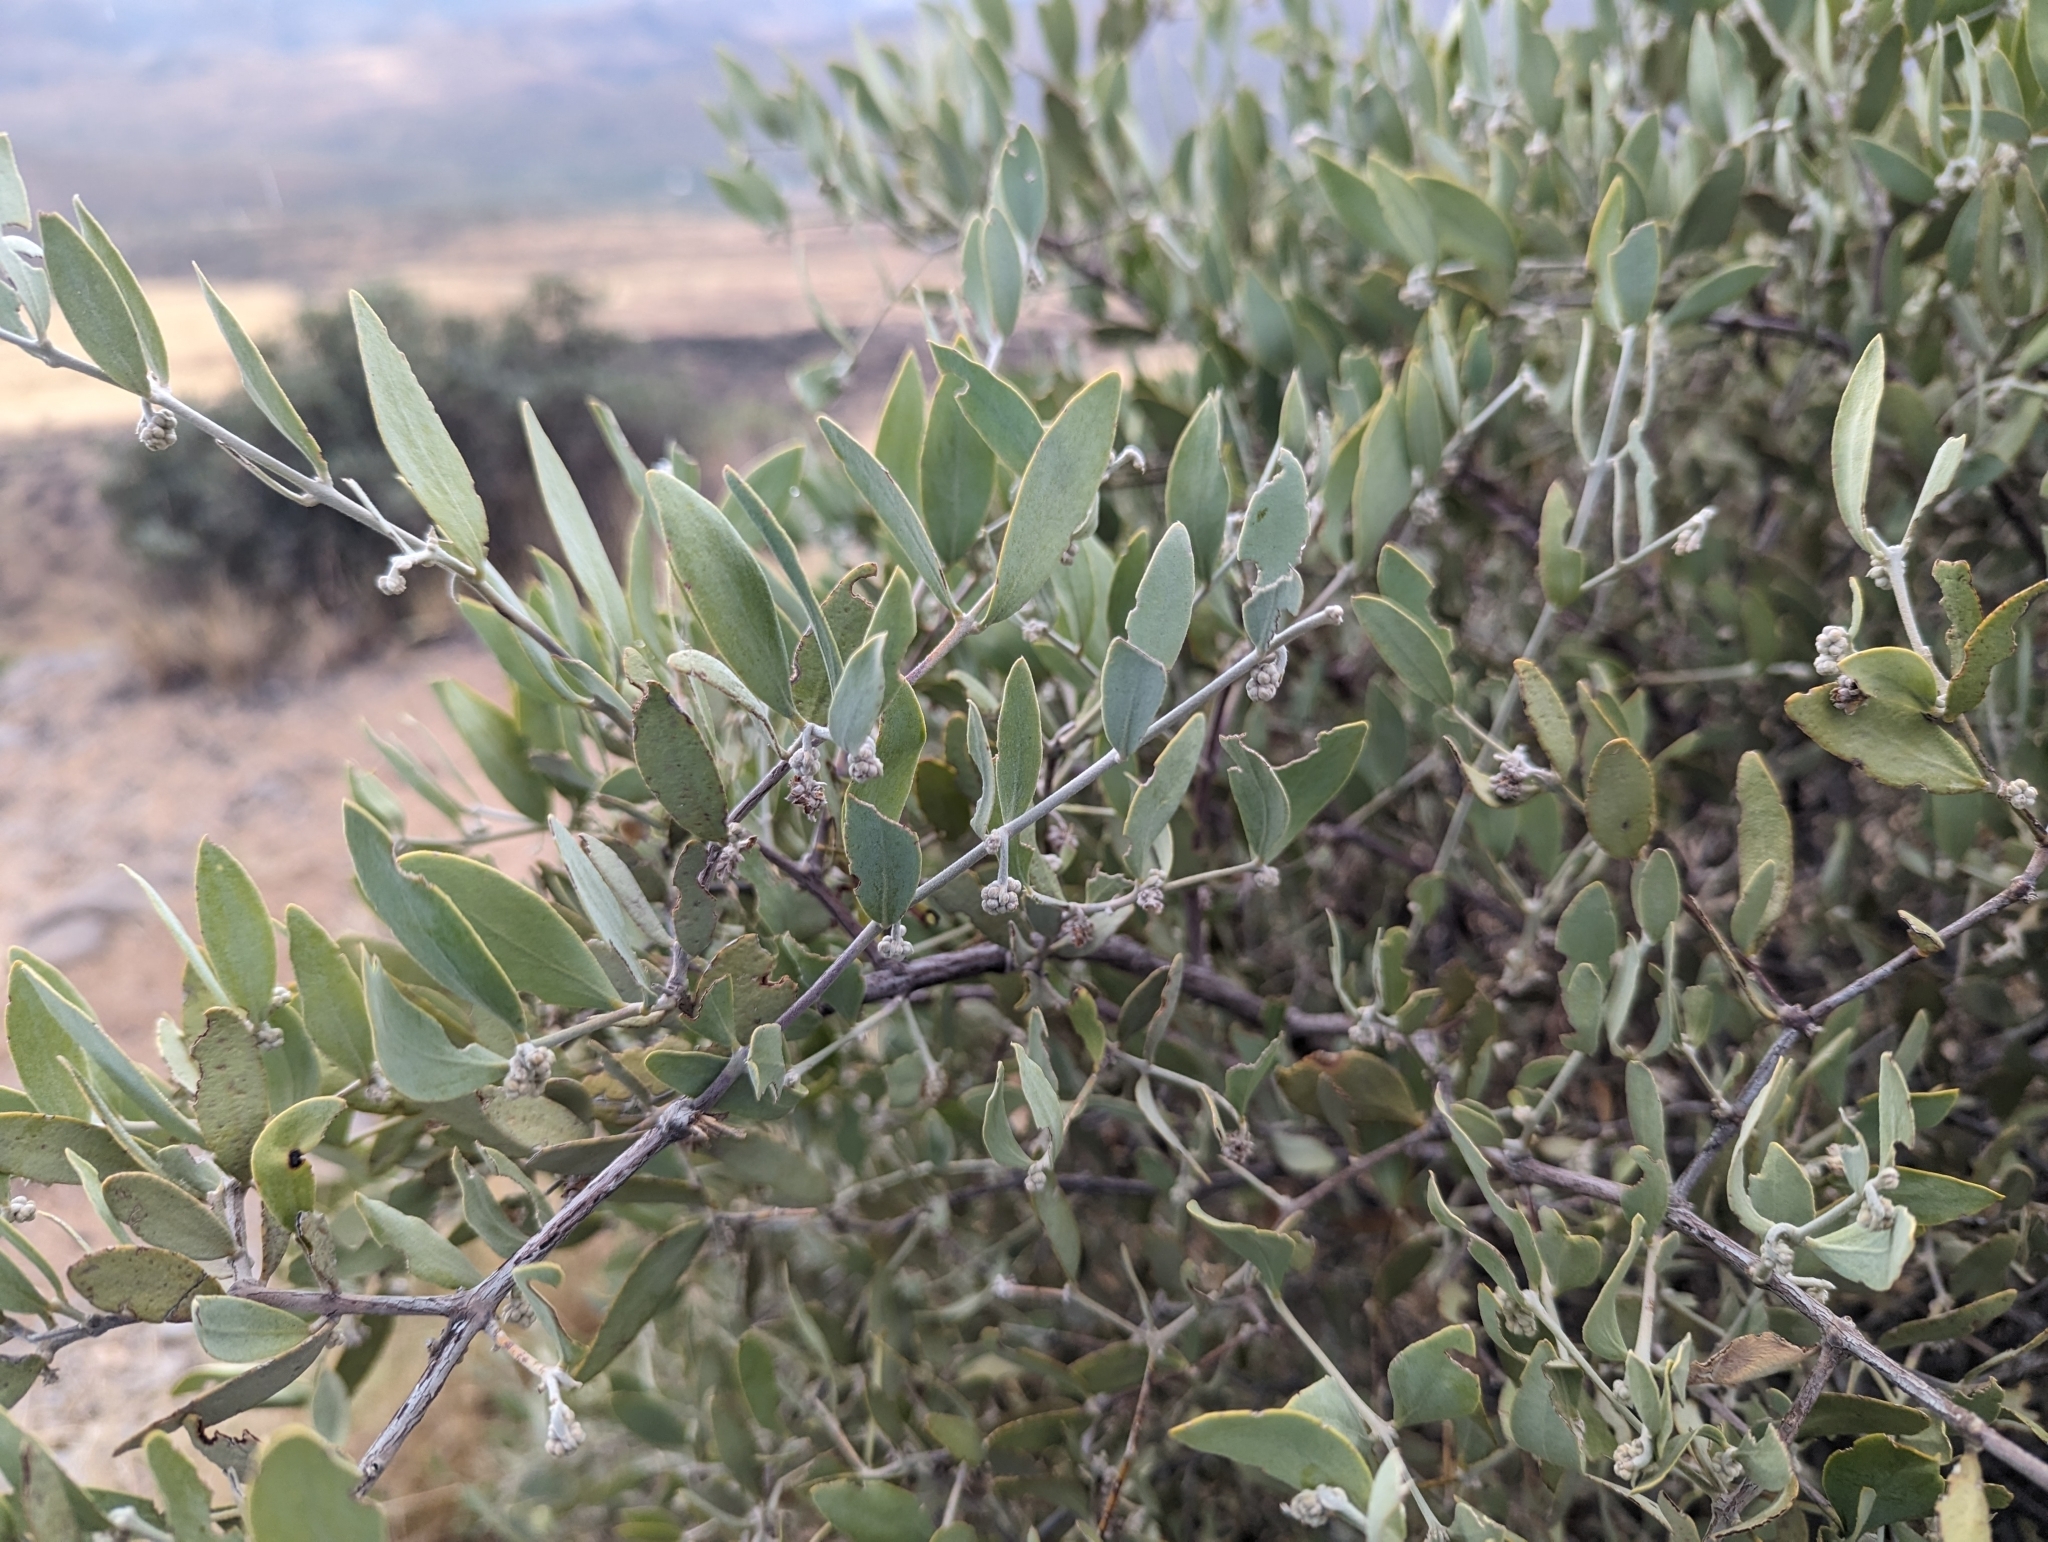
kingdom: Plantae
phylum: Tracheophyta
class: Magnoliopsida
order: Caryophyllales
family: Simmondsiaceae
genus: Simmondsia
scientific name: Simmondsia chinensis
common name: Jojoba
